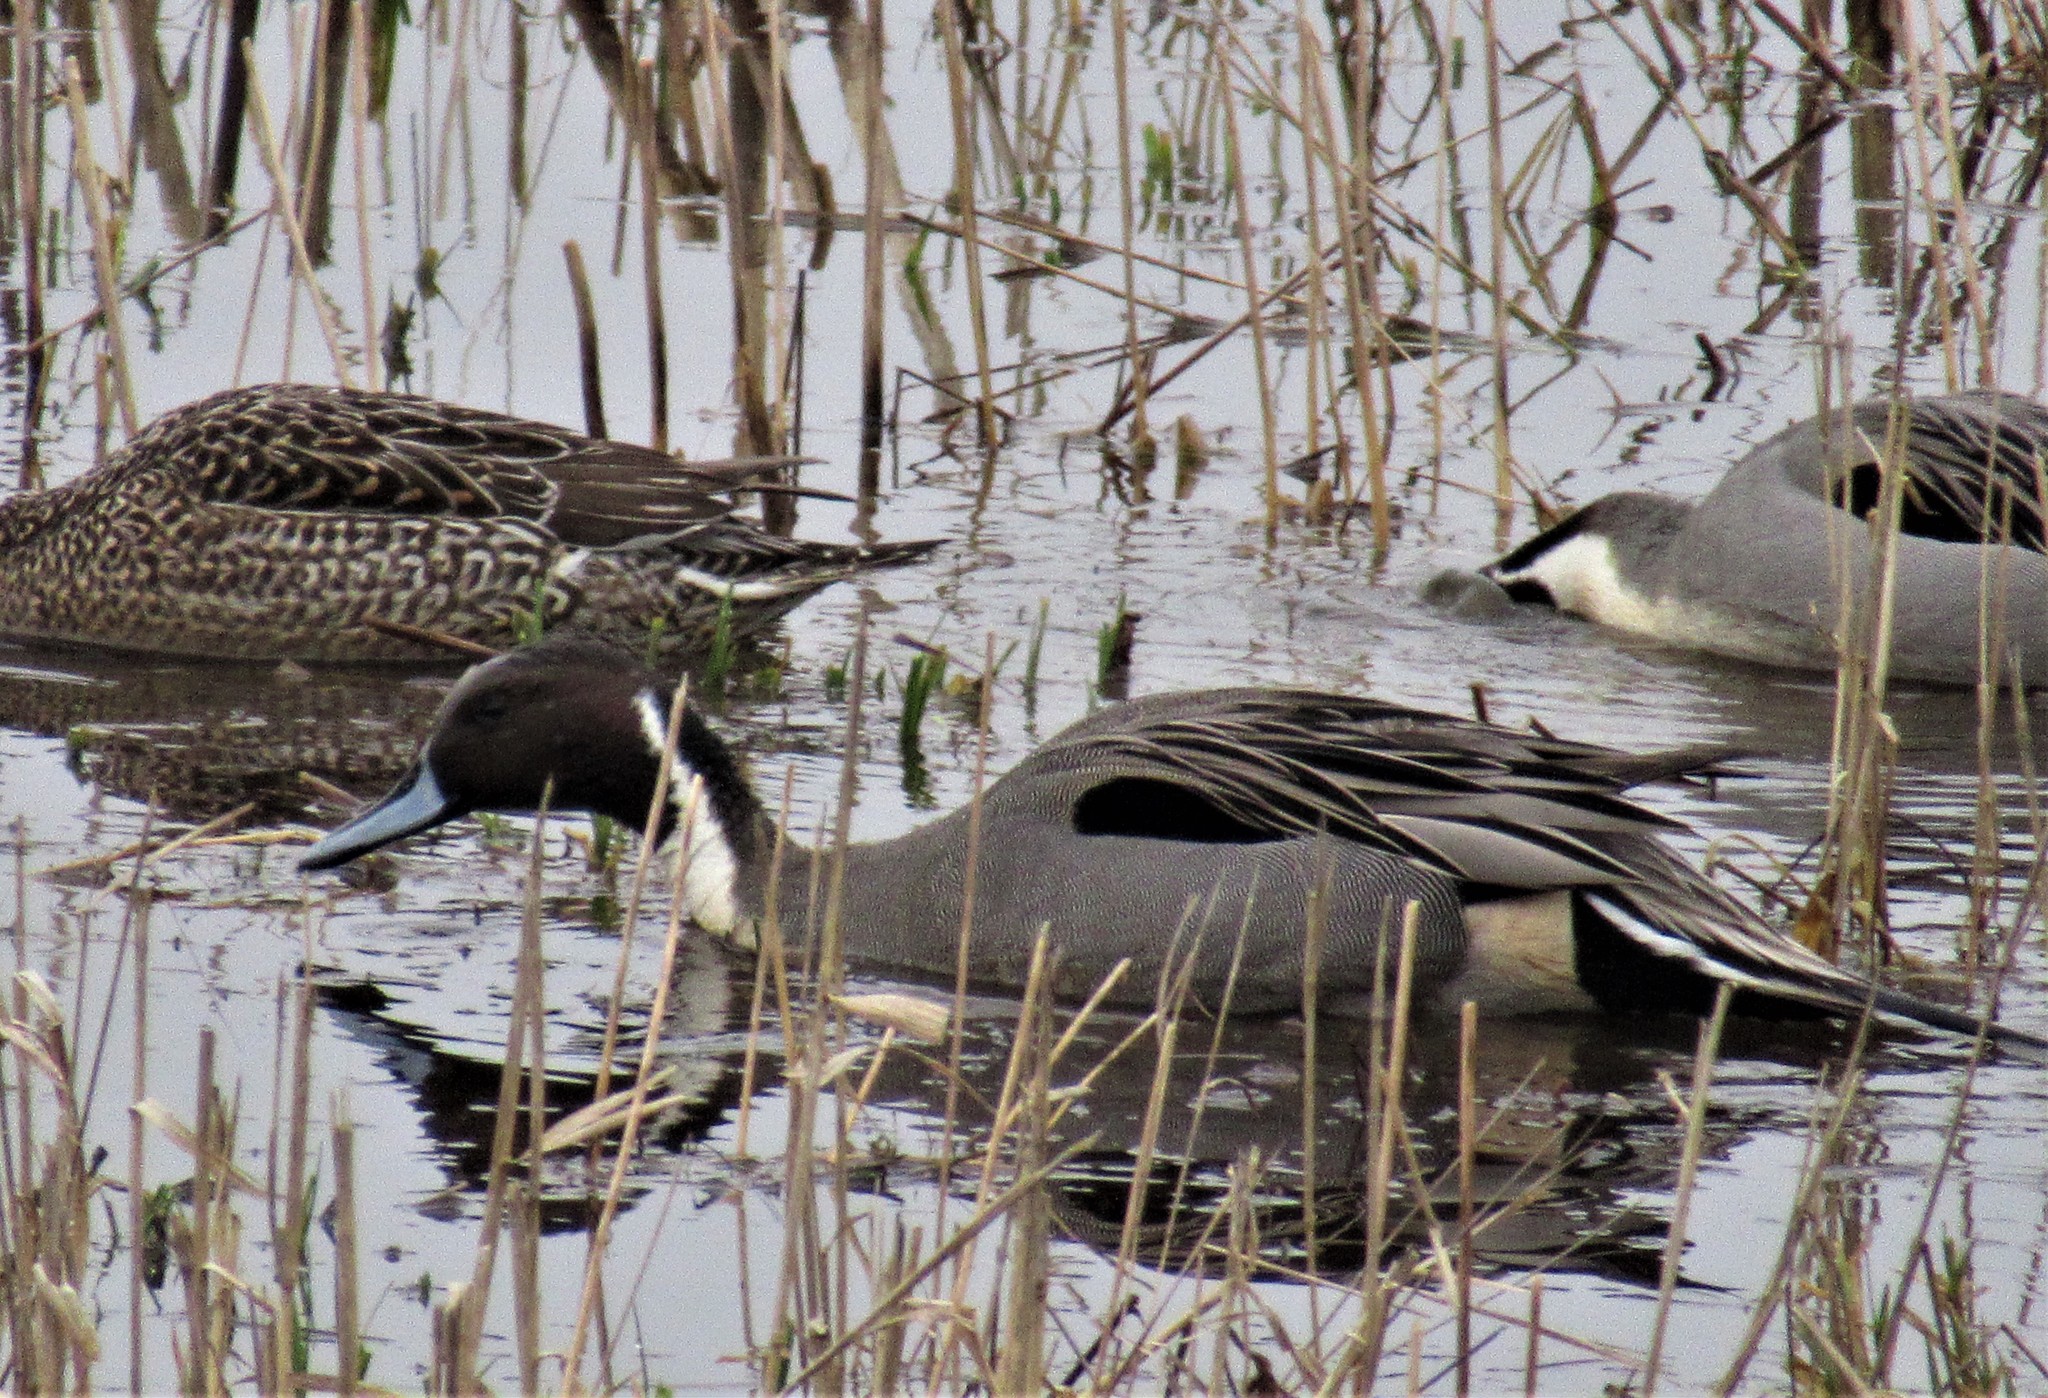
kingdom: Animalia
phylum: Chordata
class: Aves
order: Anseriformes
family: Anatidae
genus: Anas
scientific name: Anas acuta
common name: Northern pintail
